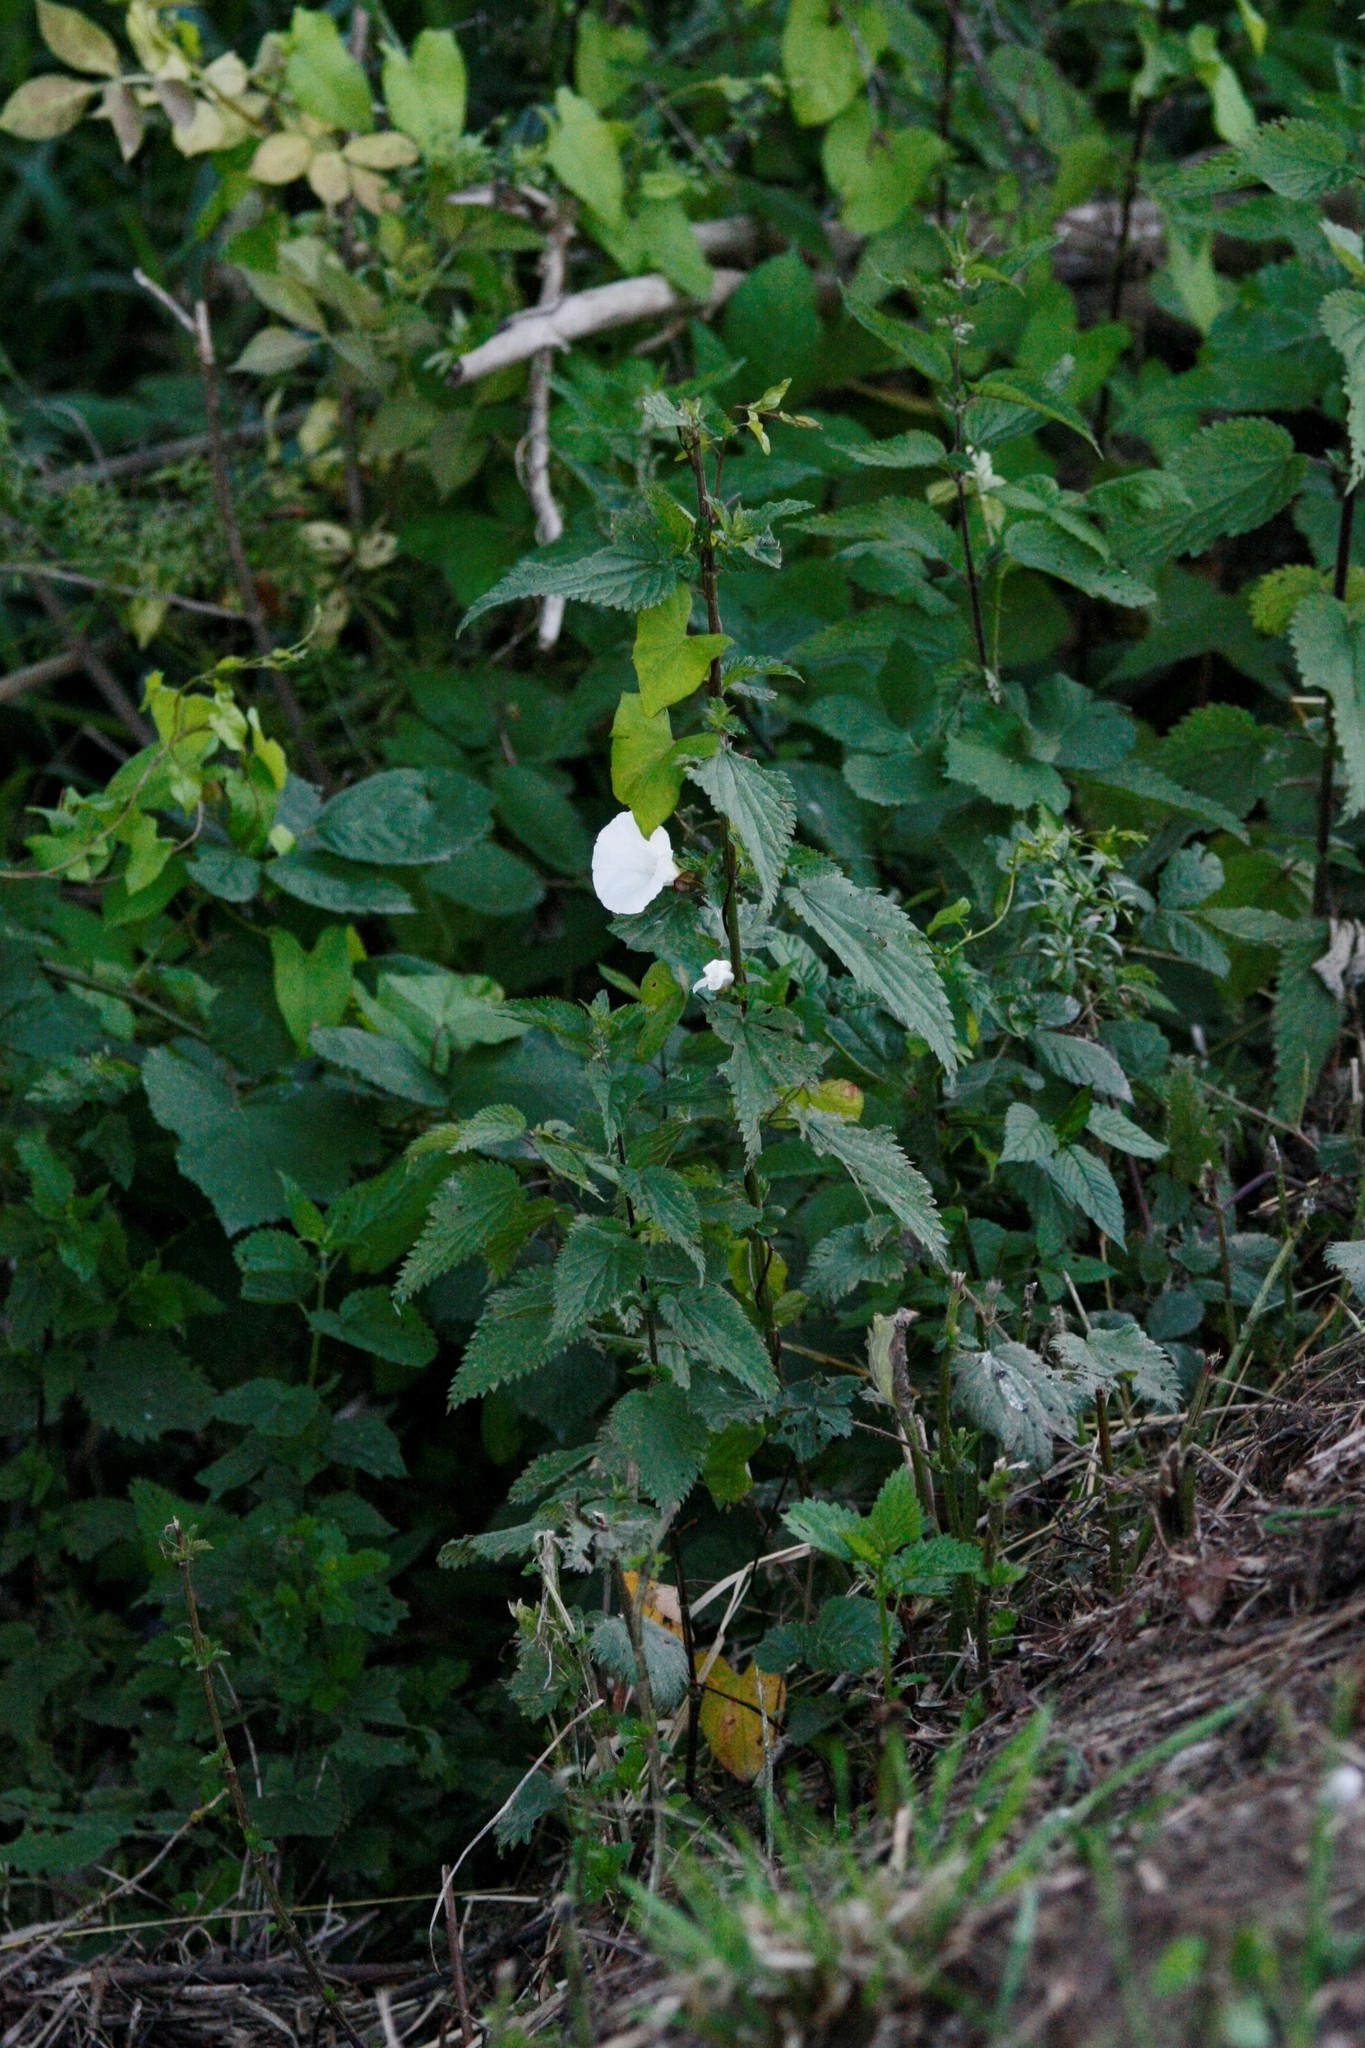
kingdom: Plantae
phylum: Tracheophyta
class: Magnoliopsida
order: Solanales
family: Convolvulaceae
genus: Calystegia
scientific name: Calystegia sepium
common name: Hedge bindweed
